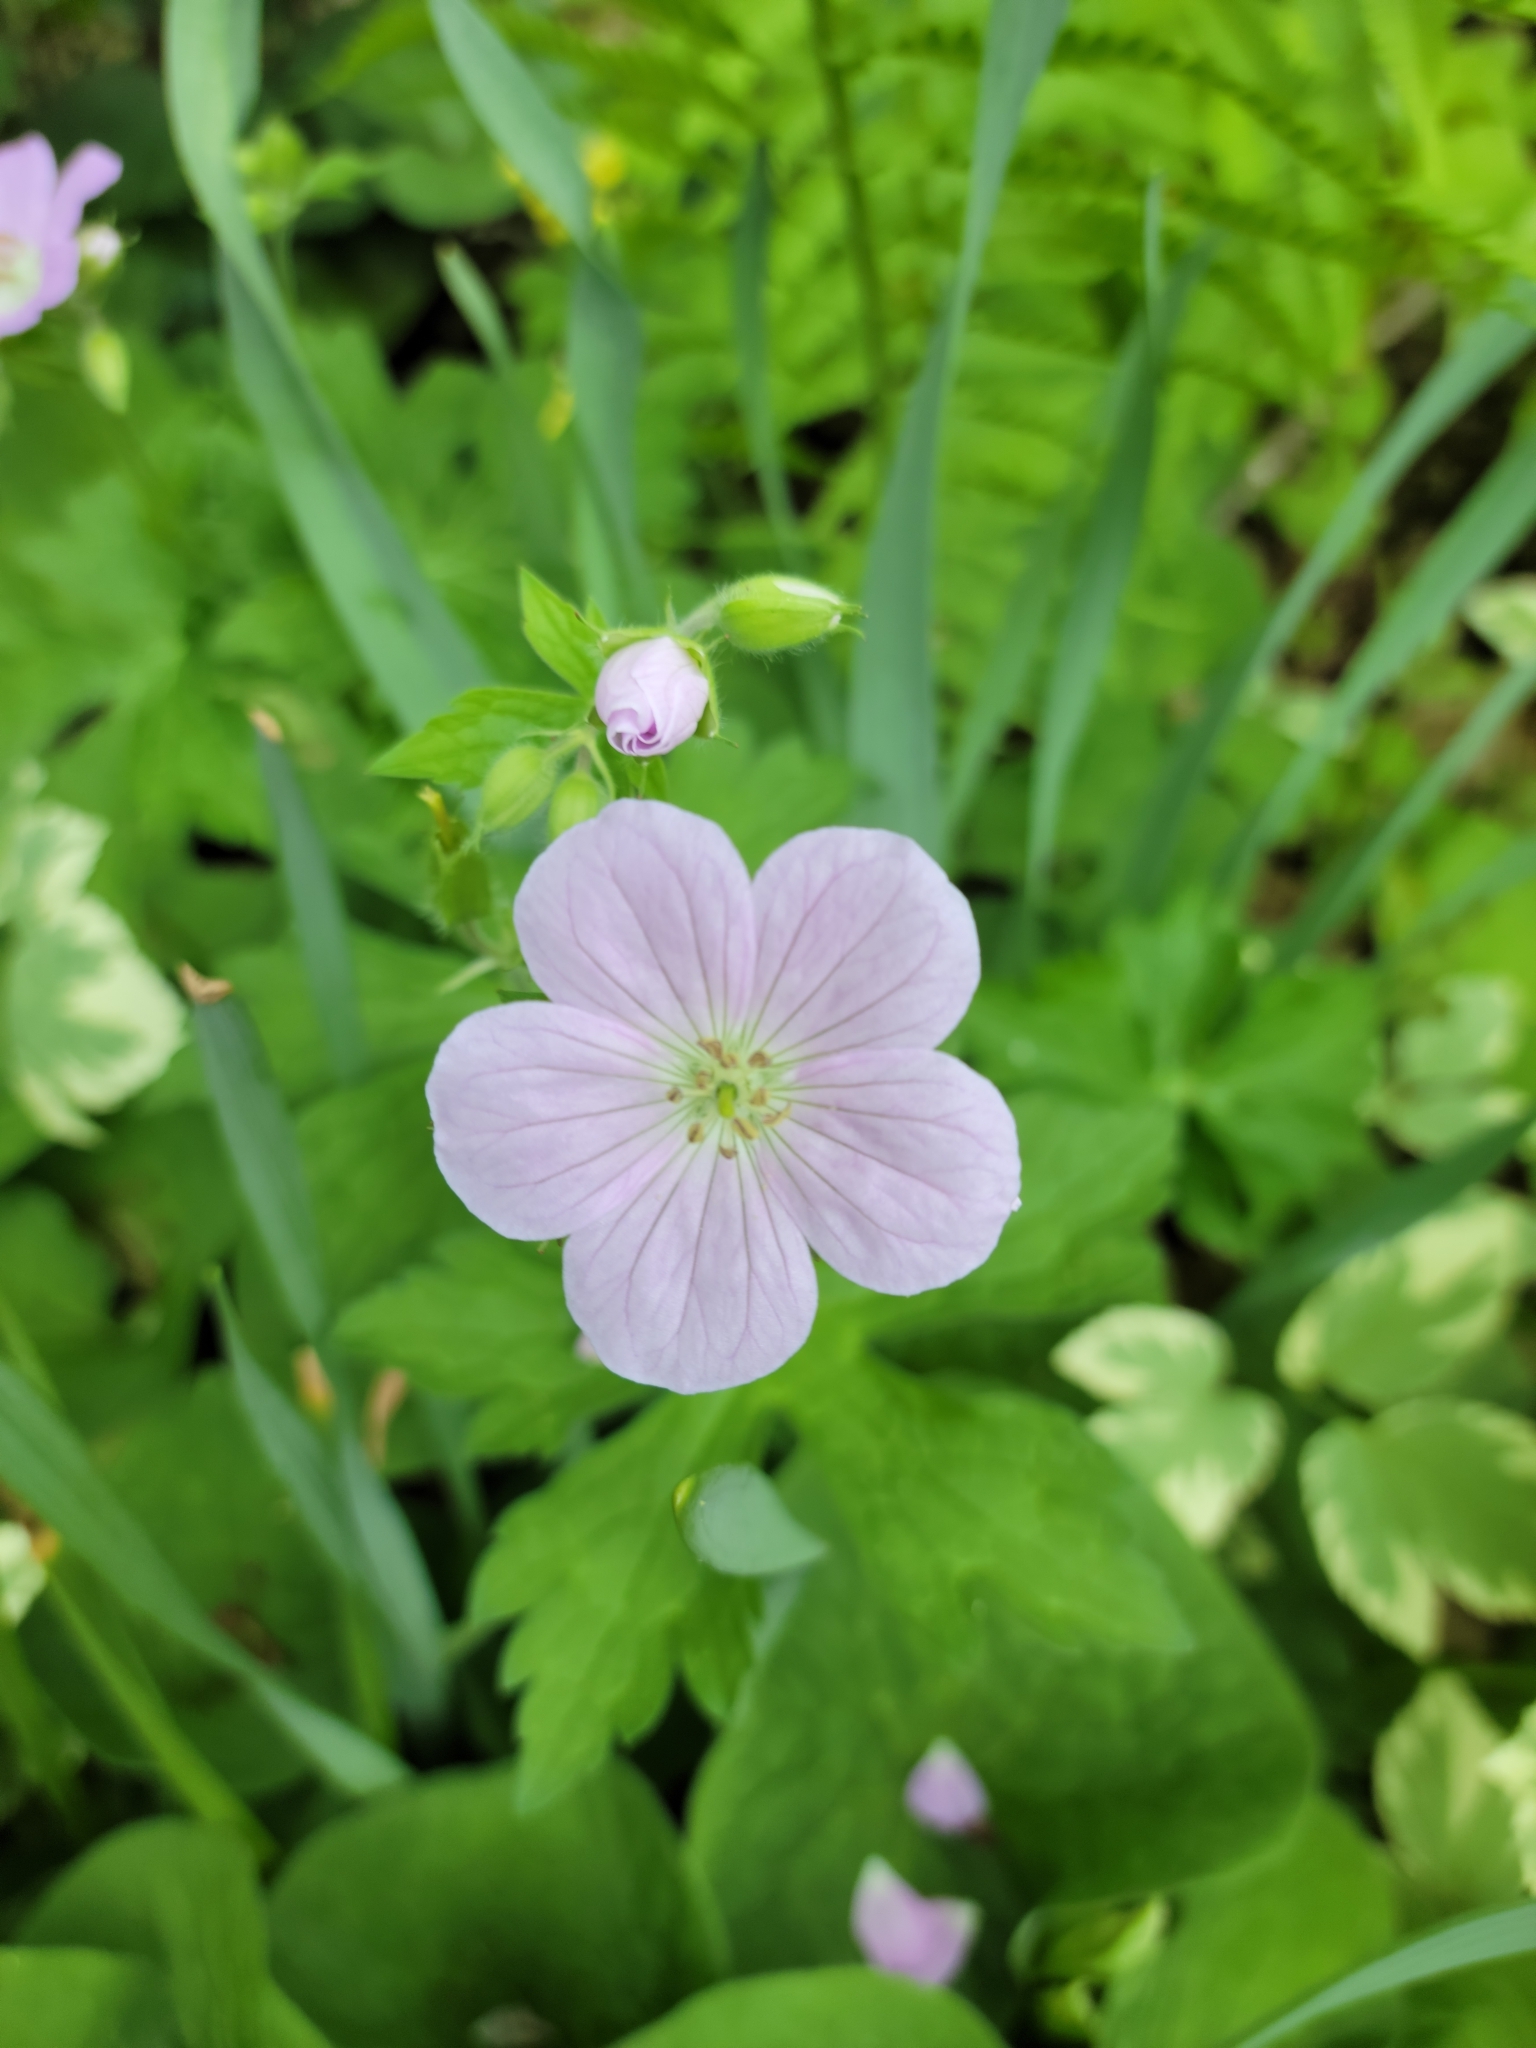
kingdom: Plantae
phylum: Tracheophyta
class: Magnoliopsida
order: Geraniales
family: Geraniaceae
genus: Geranium
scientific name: Geranium maculatum
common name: Spotted geranium
